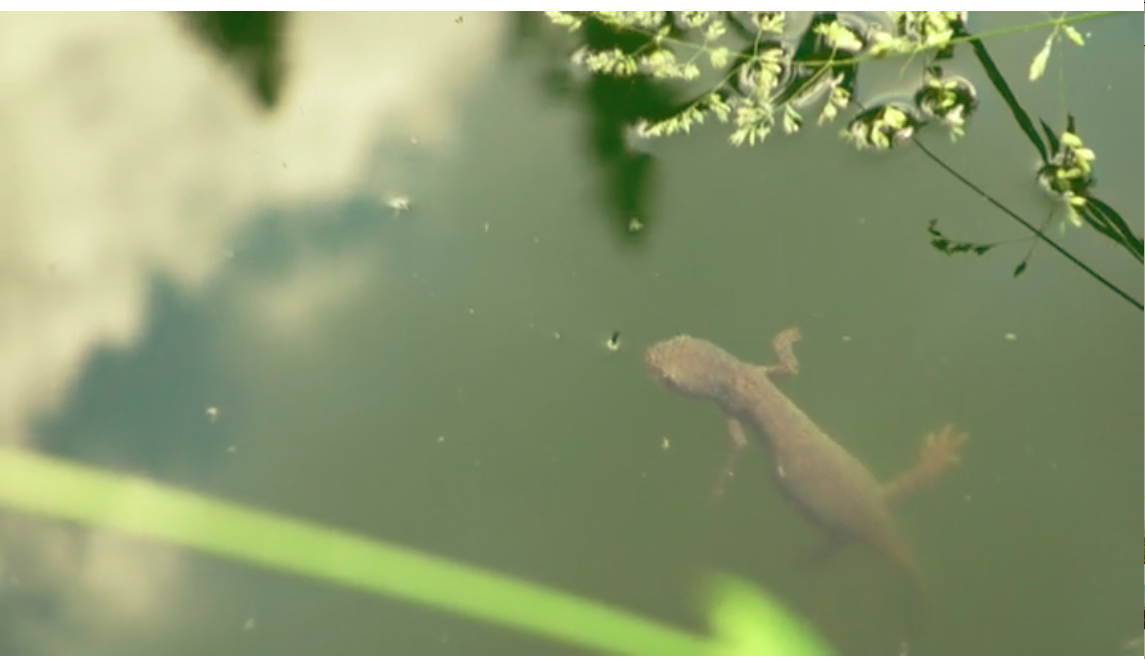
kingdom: Animalia
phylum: Chordata
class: Amphibia
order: Caudata
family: Salamandridae
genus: Notophthalmus
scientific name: Notophthalmus viridescens
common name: Eastern newt
